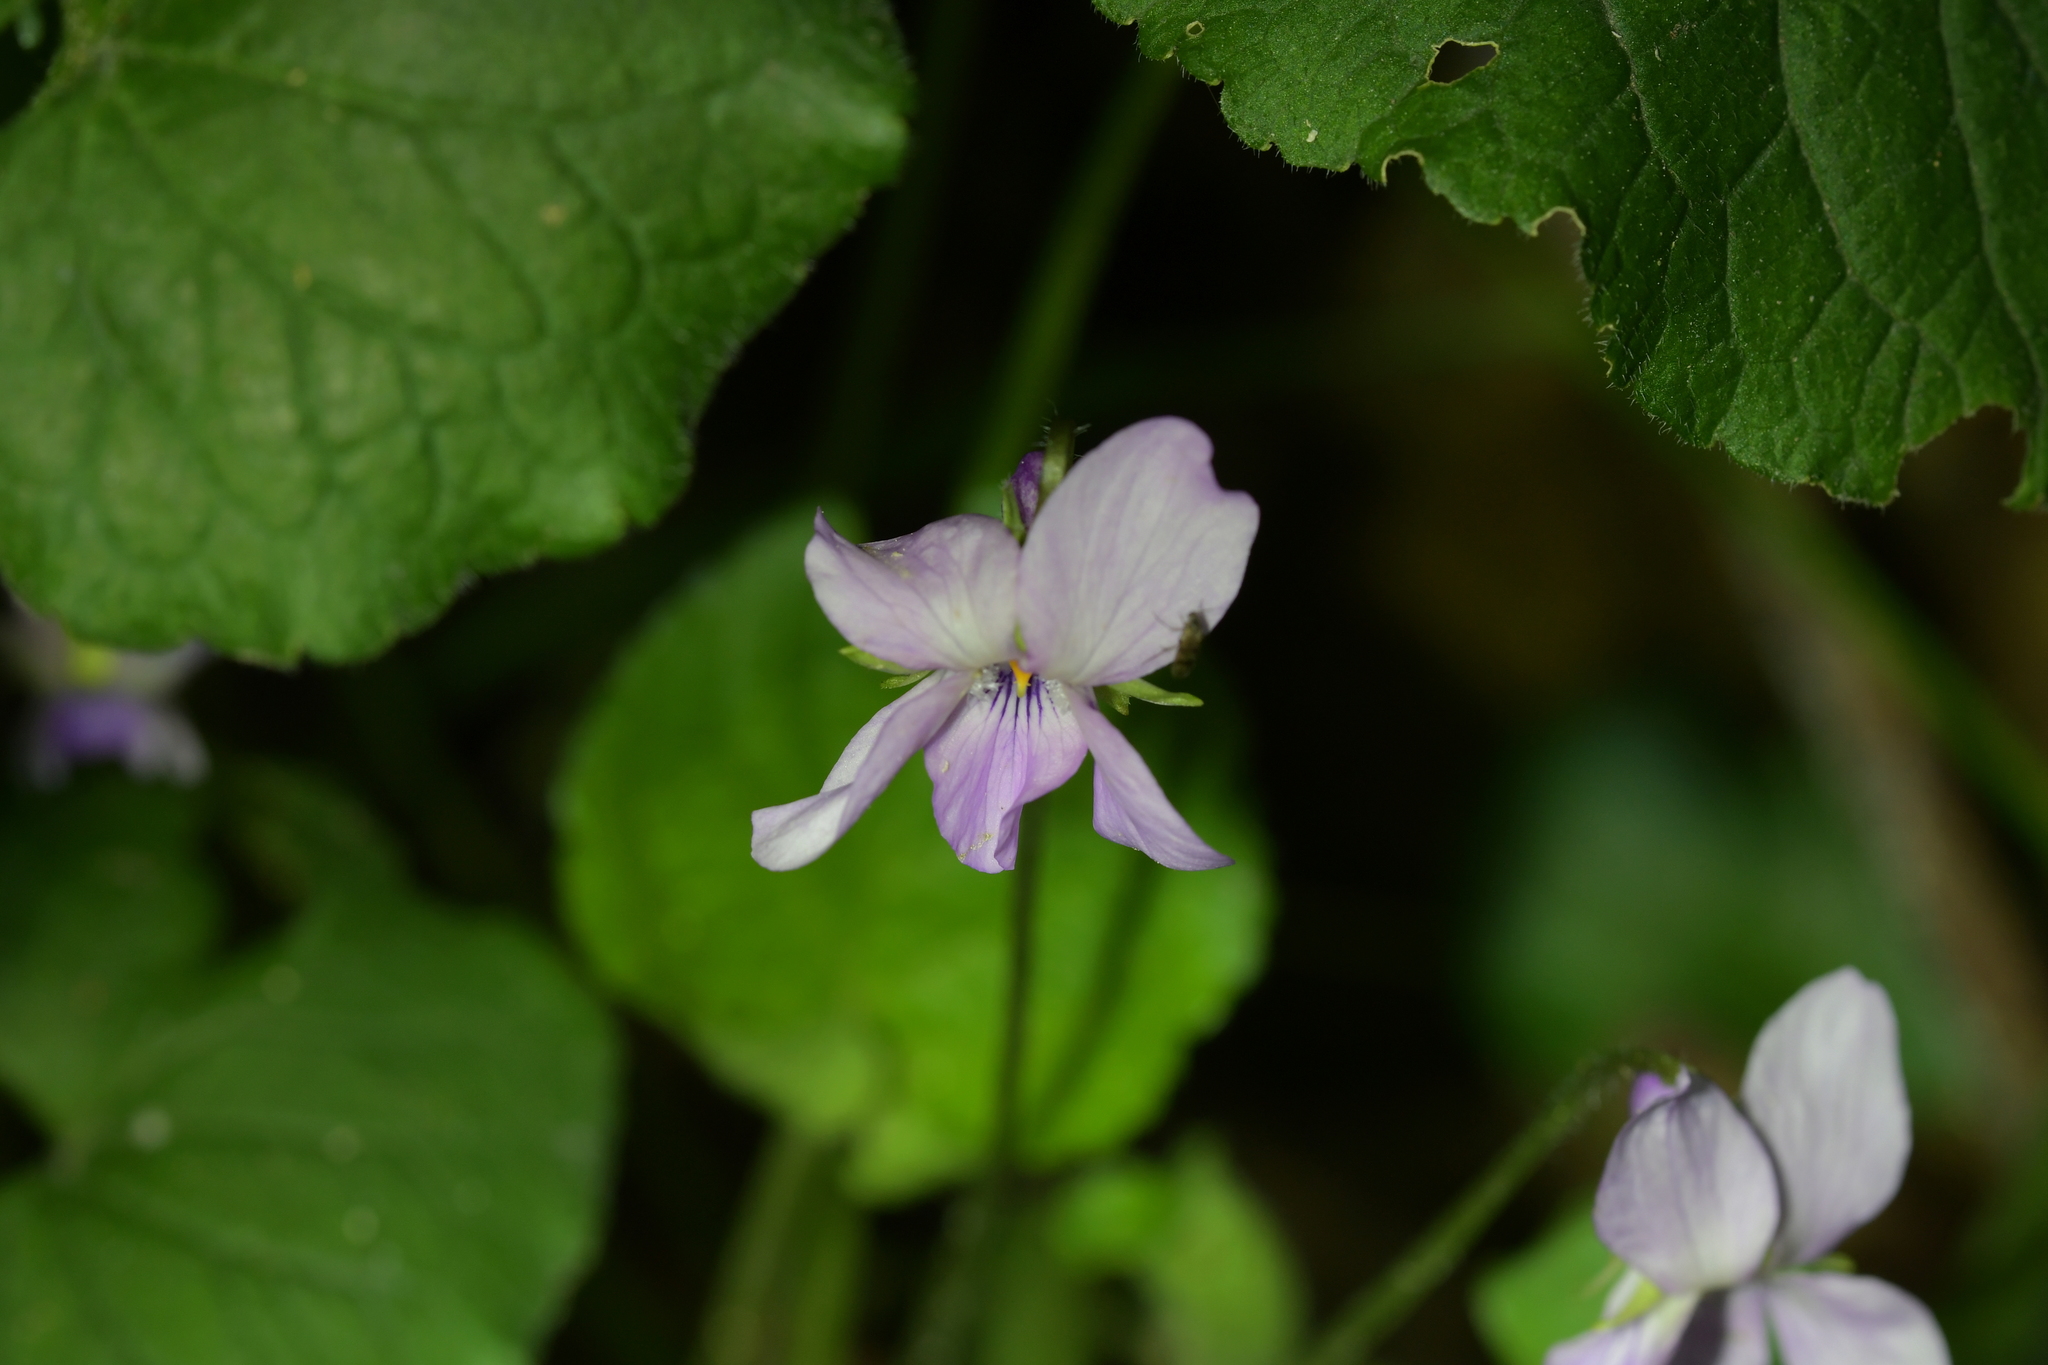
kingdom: Plantae
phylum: Tracheophyta
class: Magnoliopsida
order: Malpighiales
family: Violaceae
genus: Viola
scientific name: Viola odorata
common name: Sweet violet
